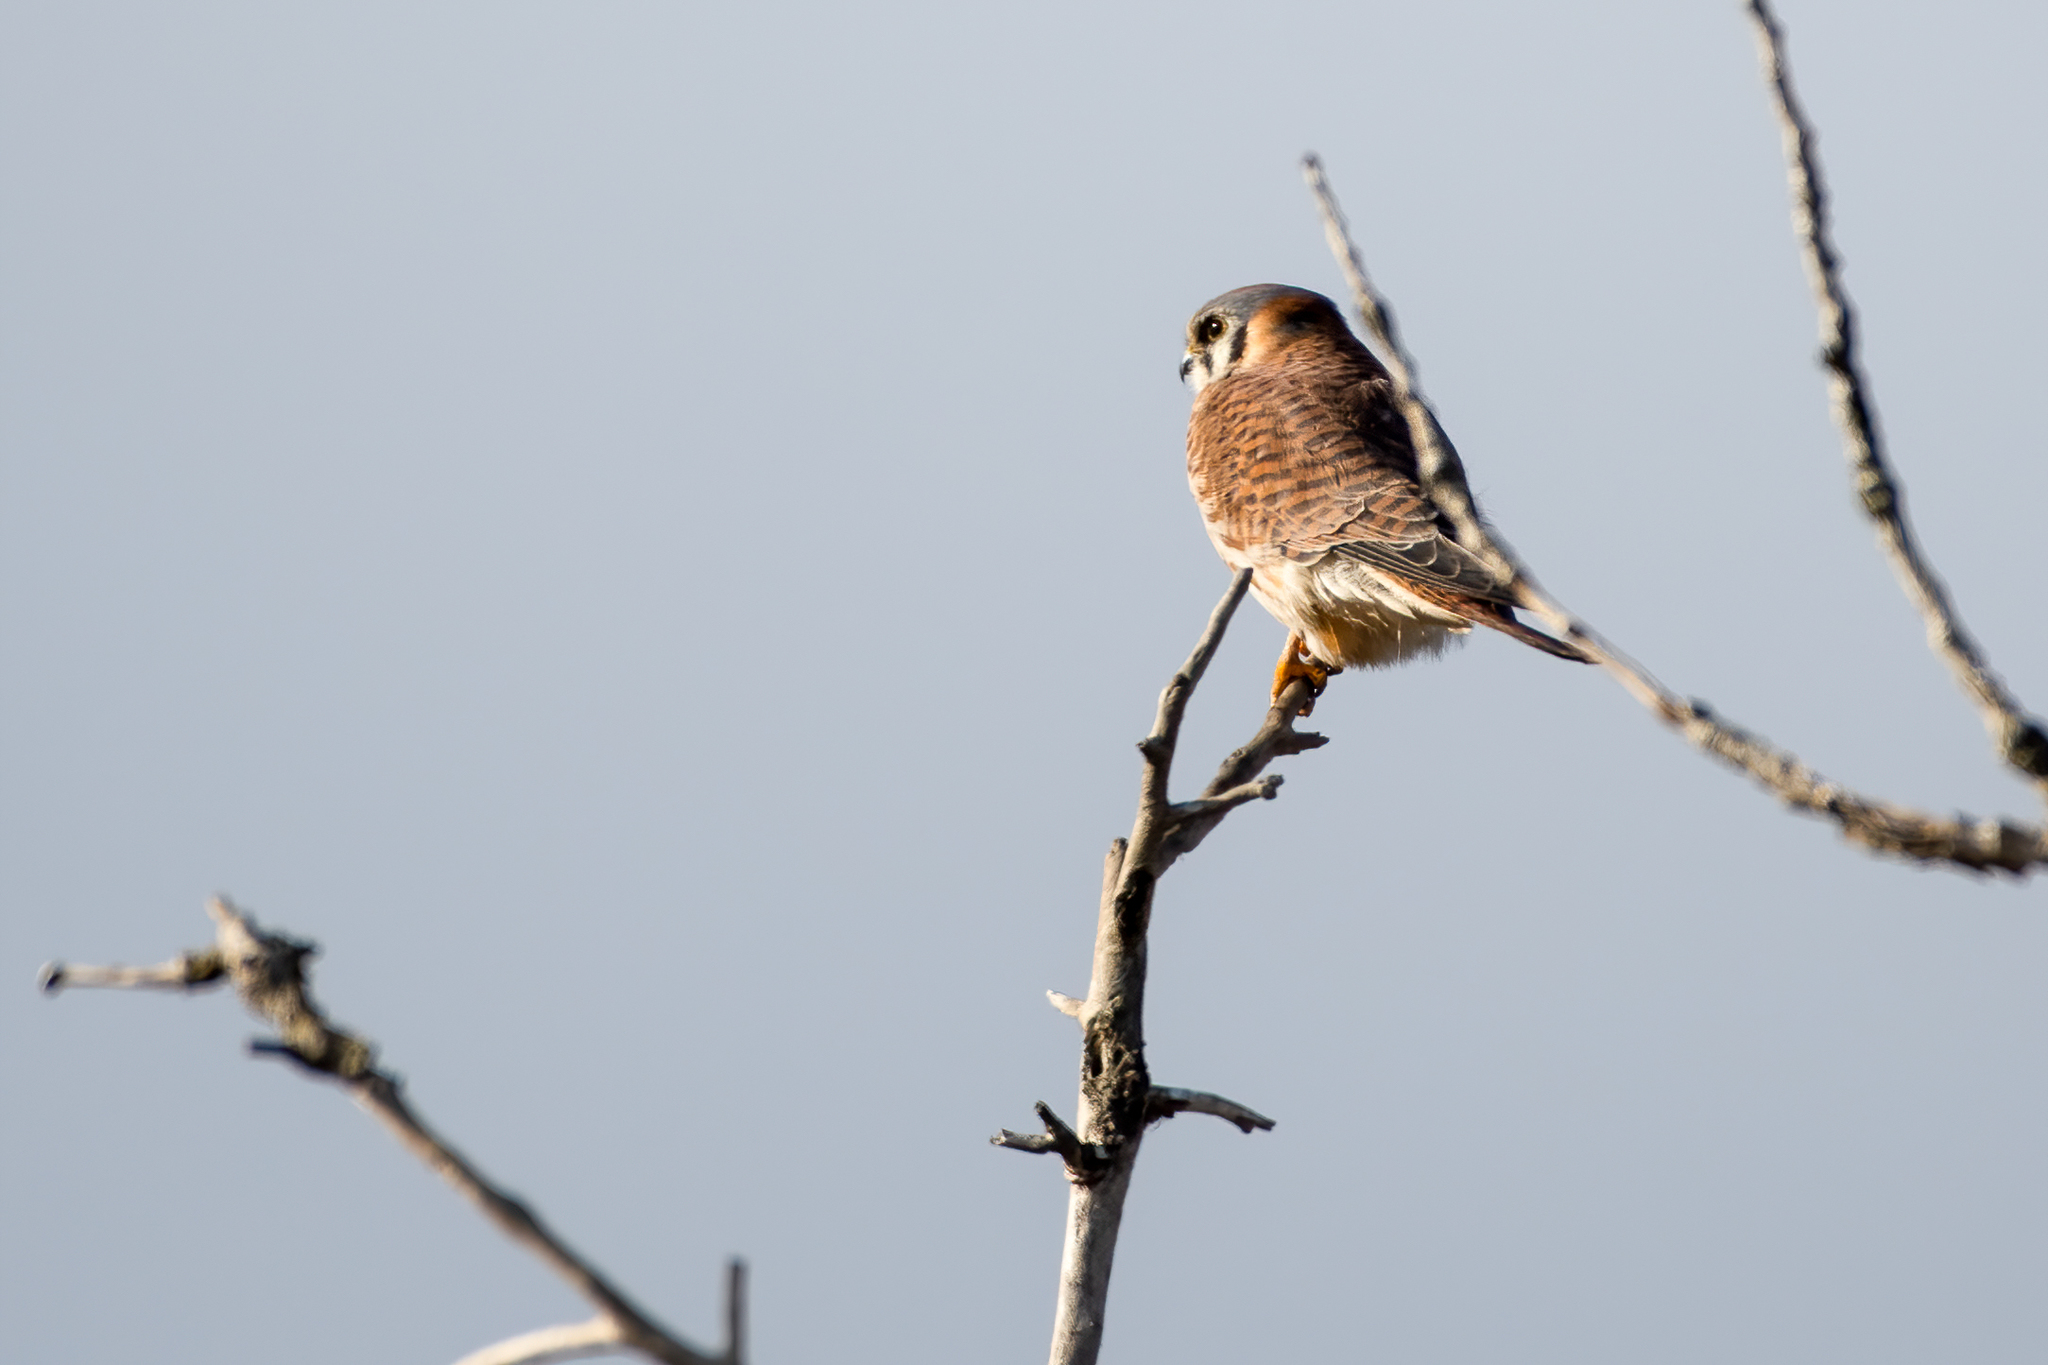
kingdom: Animalia
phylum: Chordata
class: Aves
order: Falconiformes
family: Falconidae
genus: Falco
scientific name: Falco sparverius
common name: American kestrel
